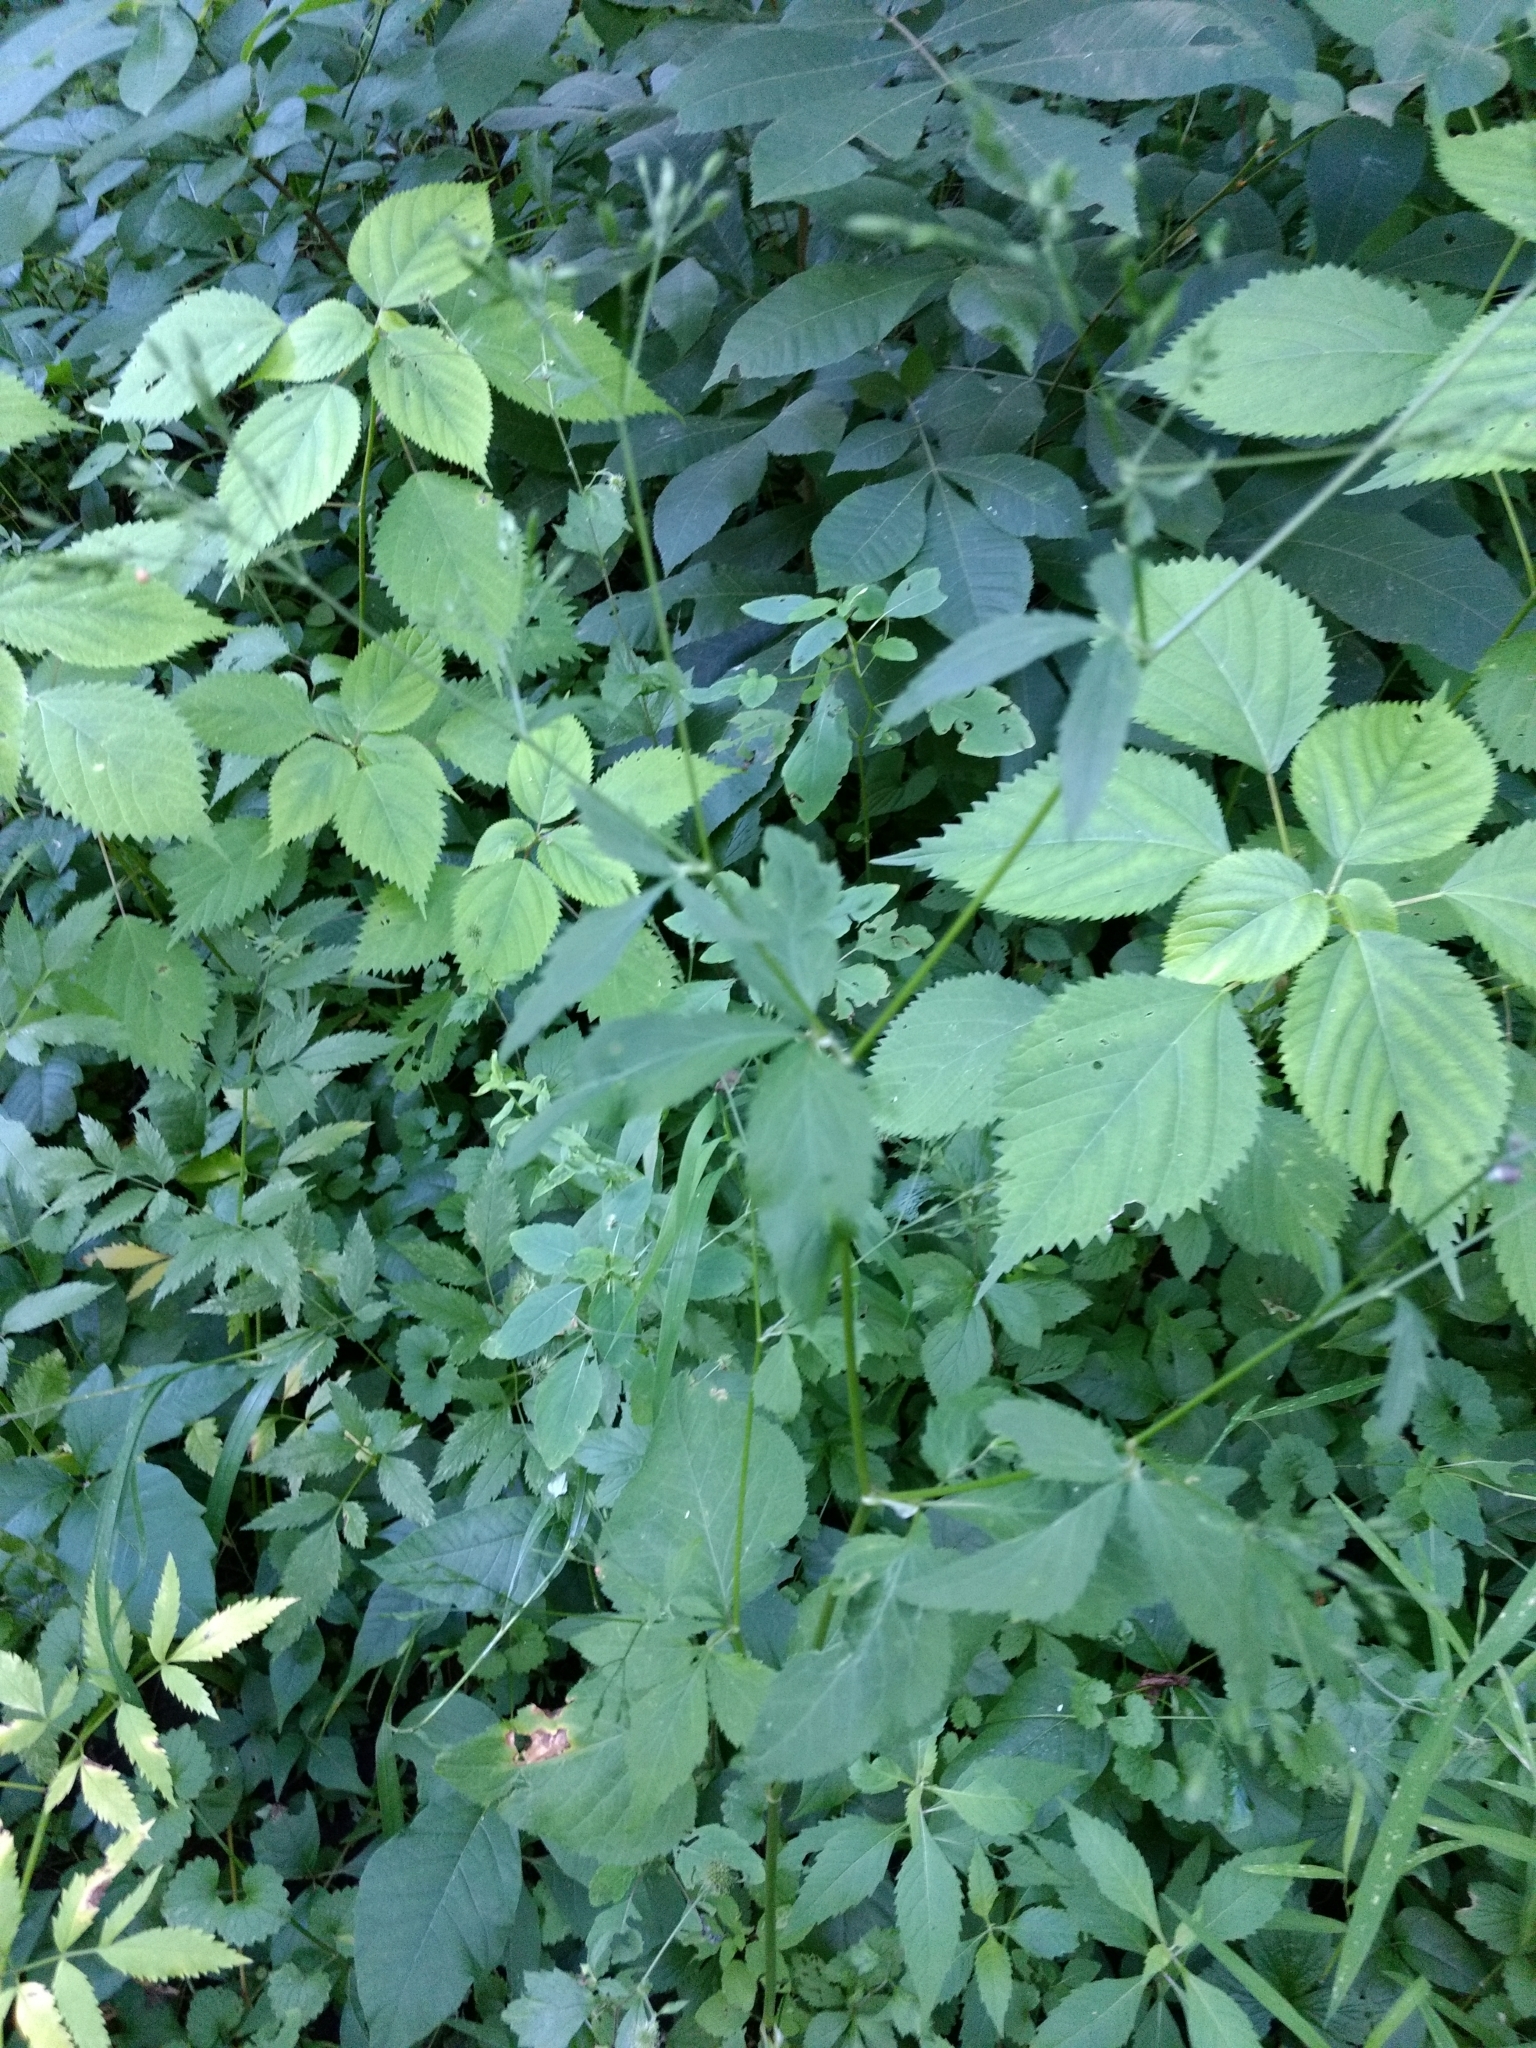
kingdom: Plantae
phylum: Tracheophyta
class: Magnoliopsida
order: Apiales
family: Apiaceae
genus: Cryptotaenia
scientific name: Cryptotaenia canadensis
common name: Honewort
